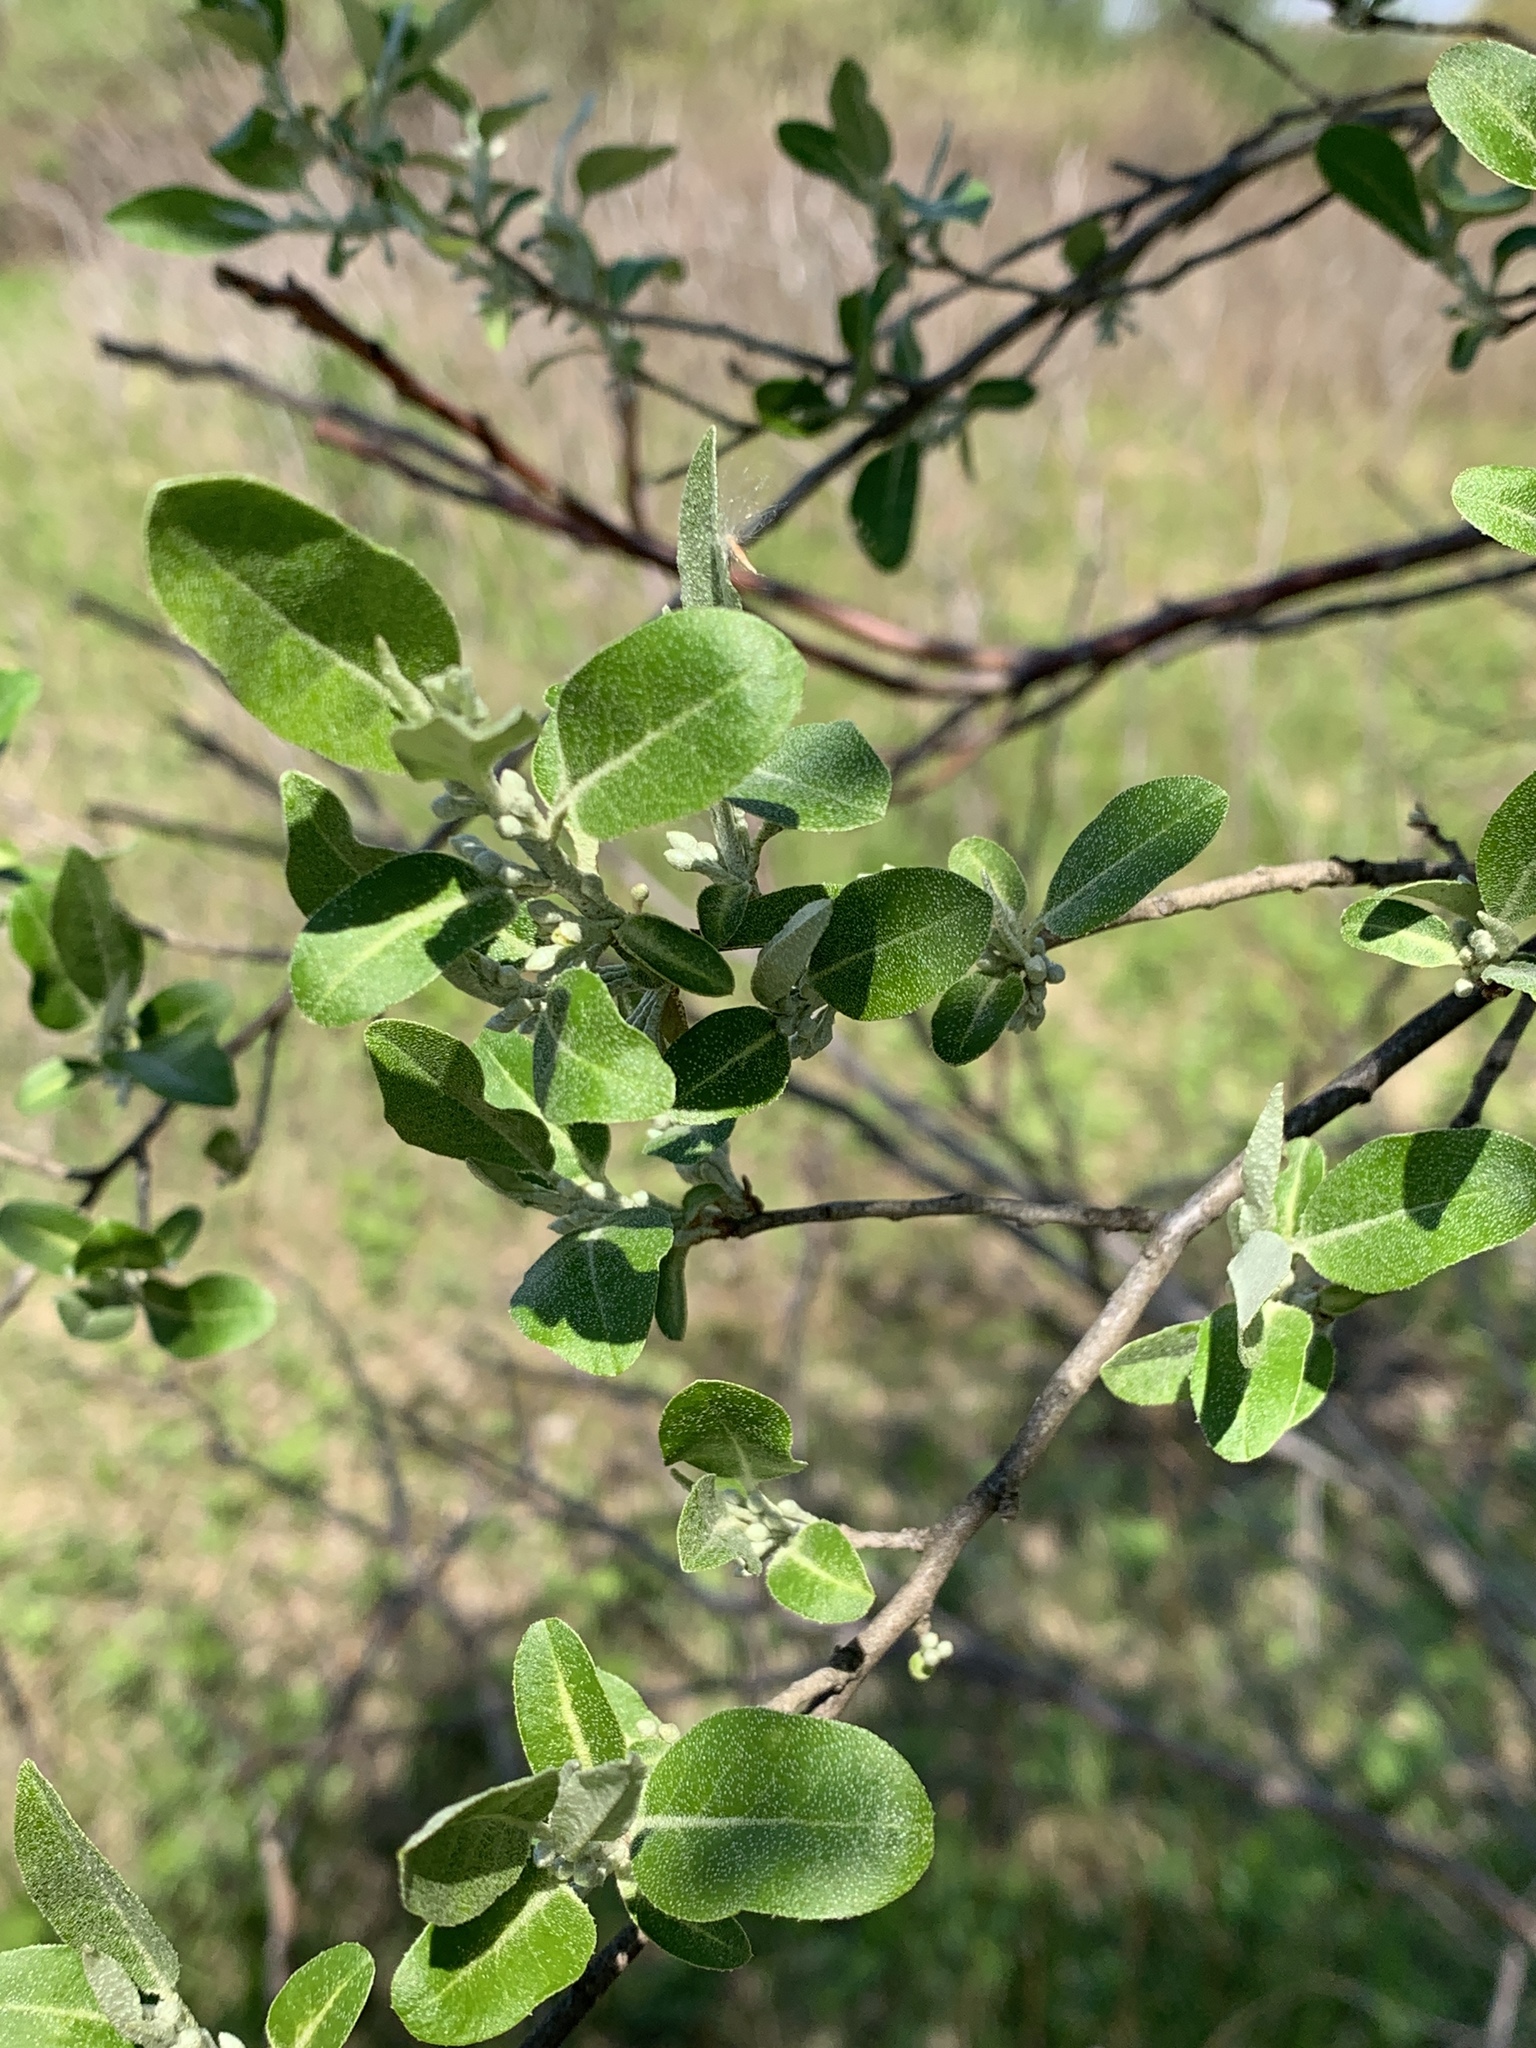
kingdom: Plantae
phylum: Tracheophyta
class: Magnoliopsida
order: Rosales
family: Elaeagnaceae
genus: Elaeagnus
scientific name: Elaeagnus umbellata
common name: Autumn olive
